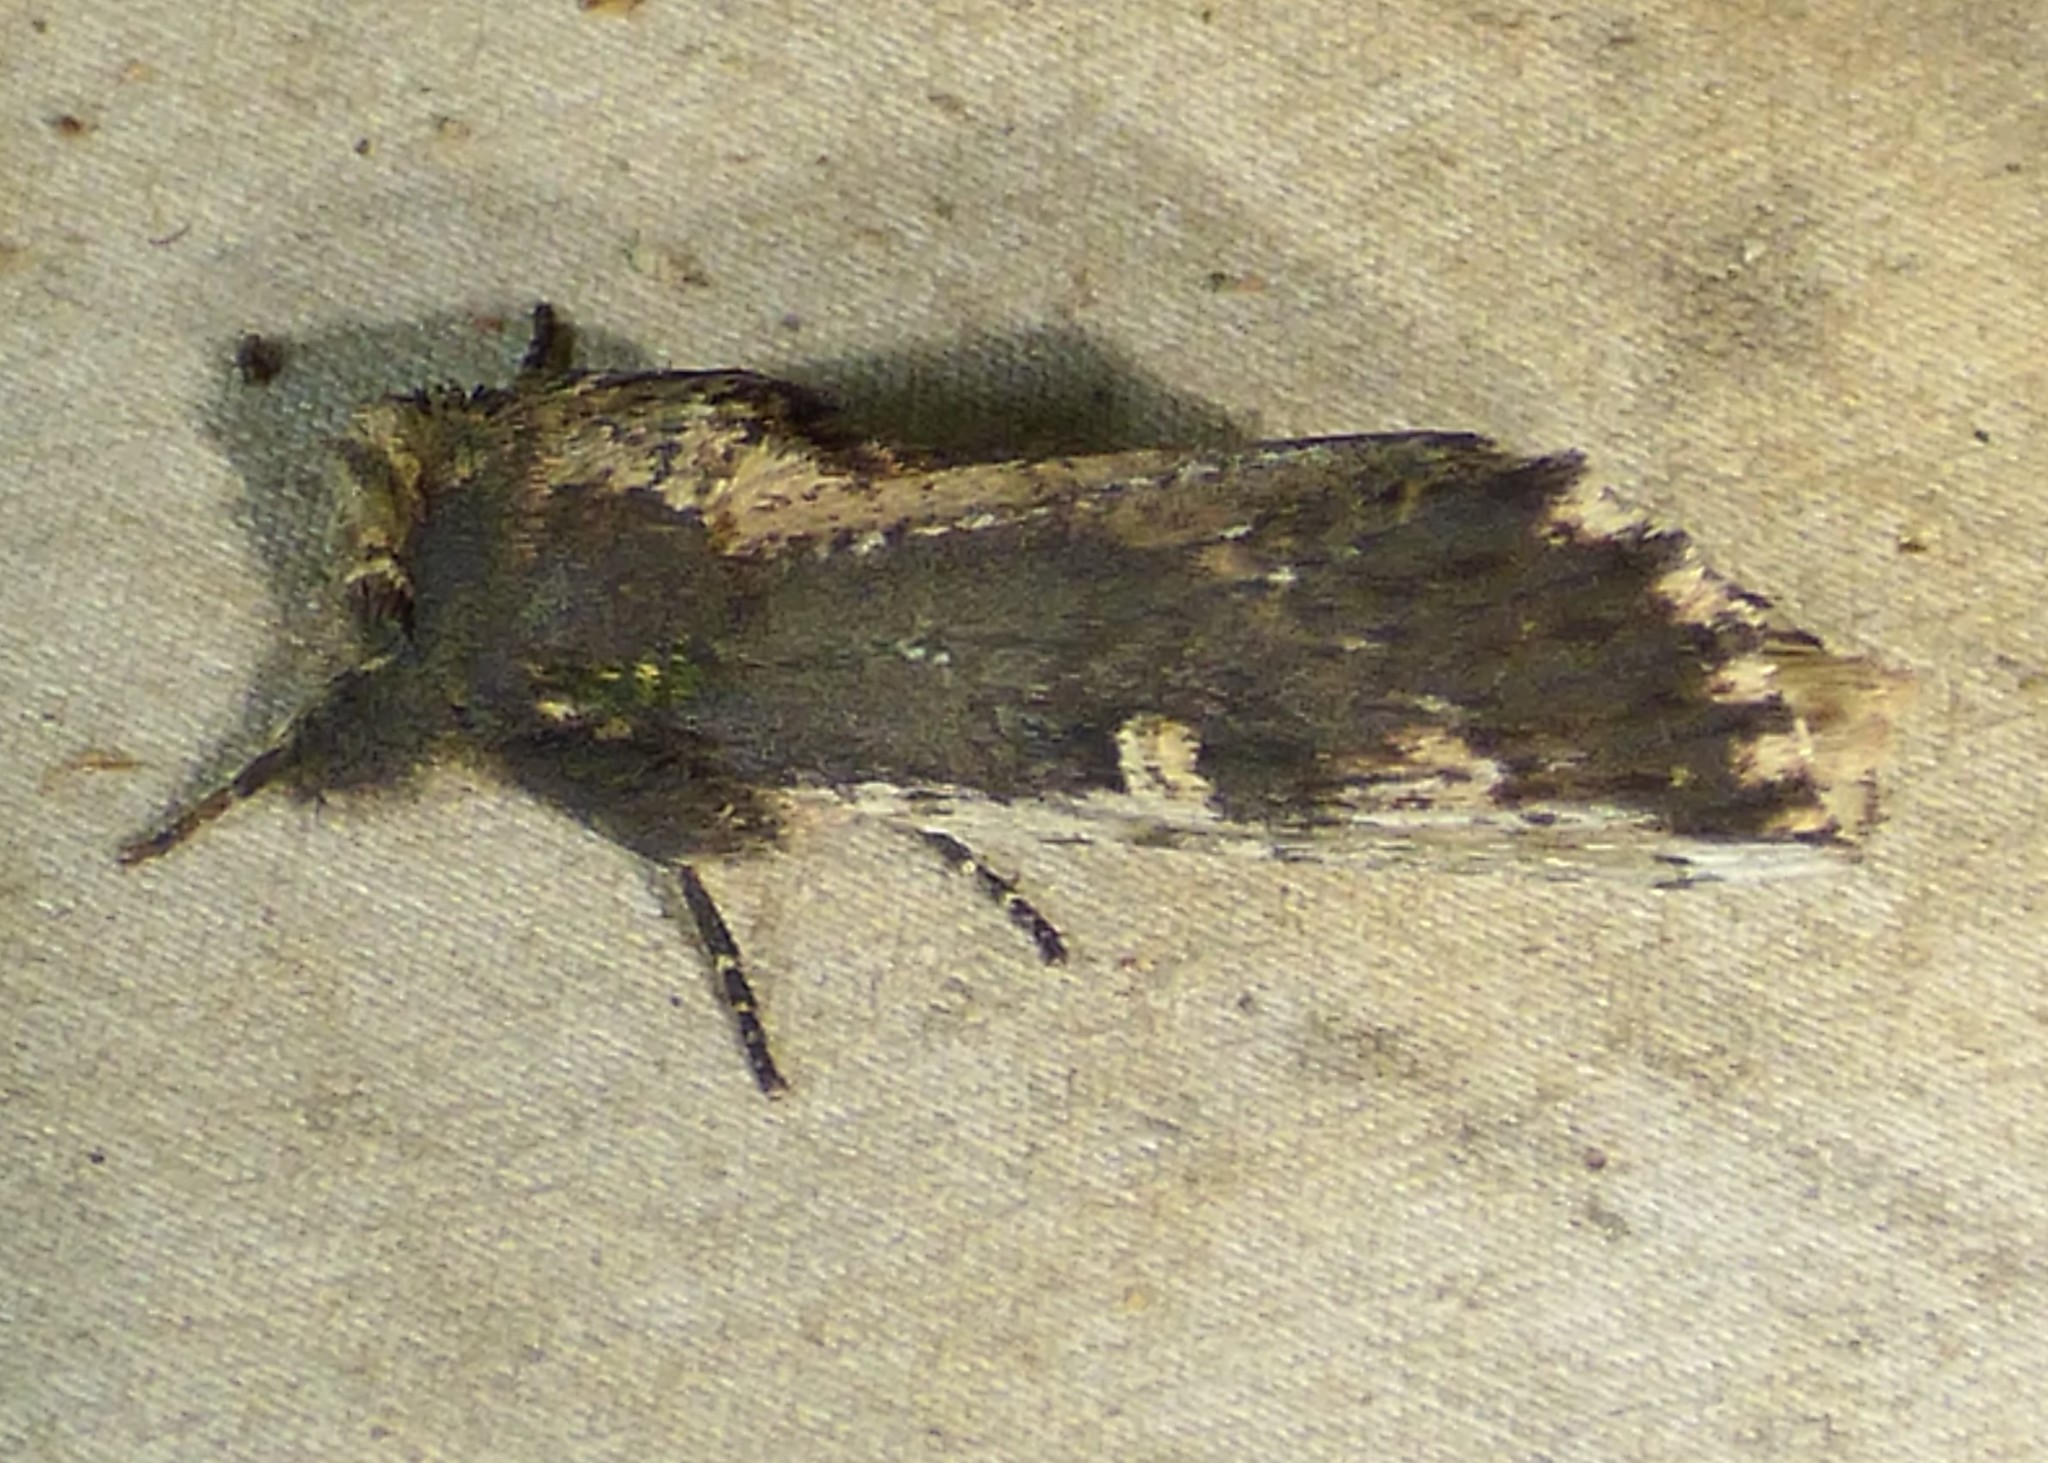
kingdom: Animalia
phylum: Arthropoda
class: Insecta
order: Lepidoptera
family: Notodontidae
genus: Schizura
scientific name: Schizura ipomaeae
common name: Morning-glory prominent
